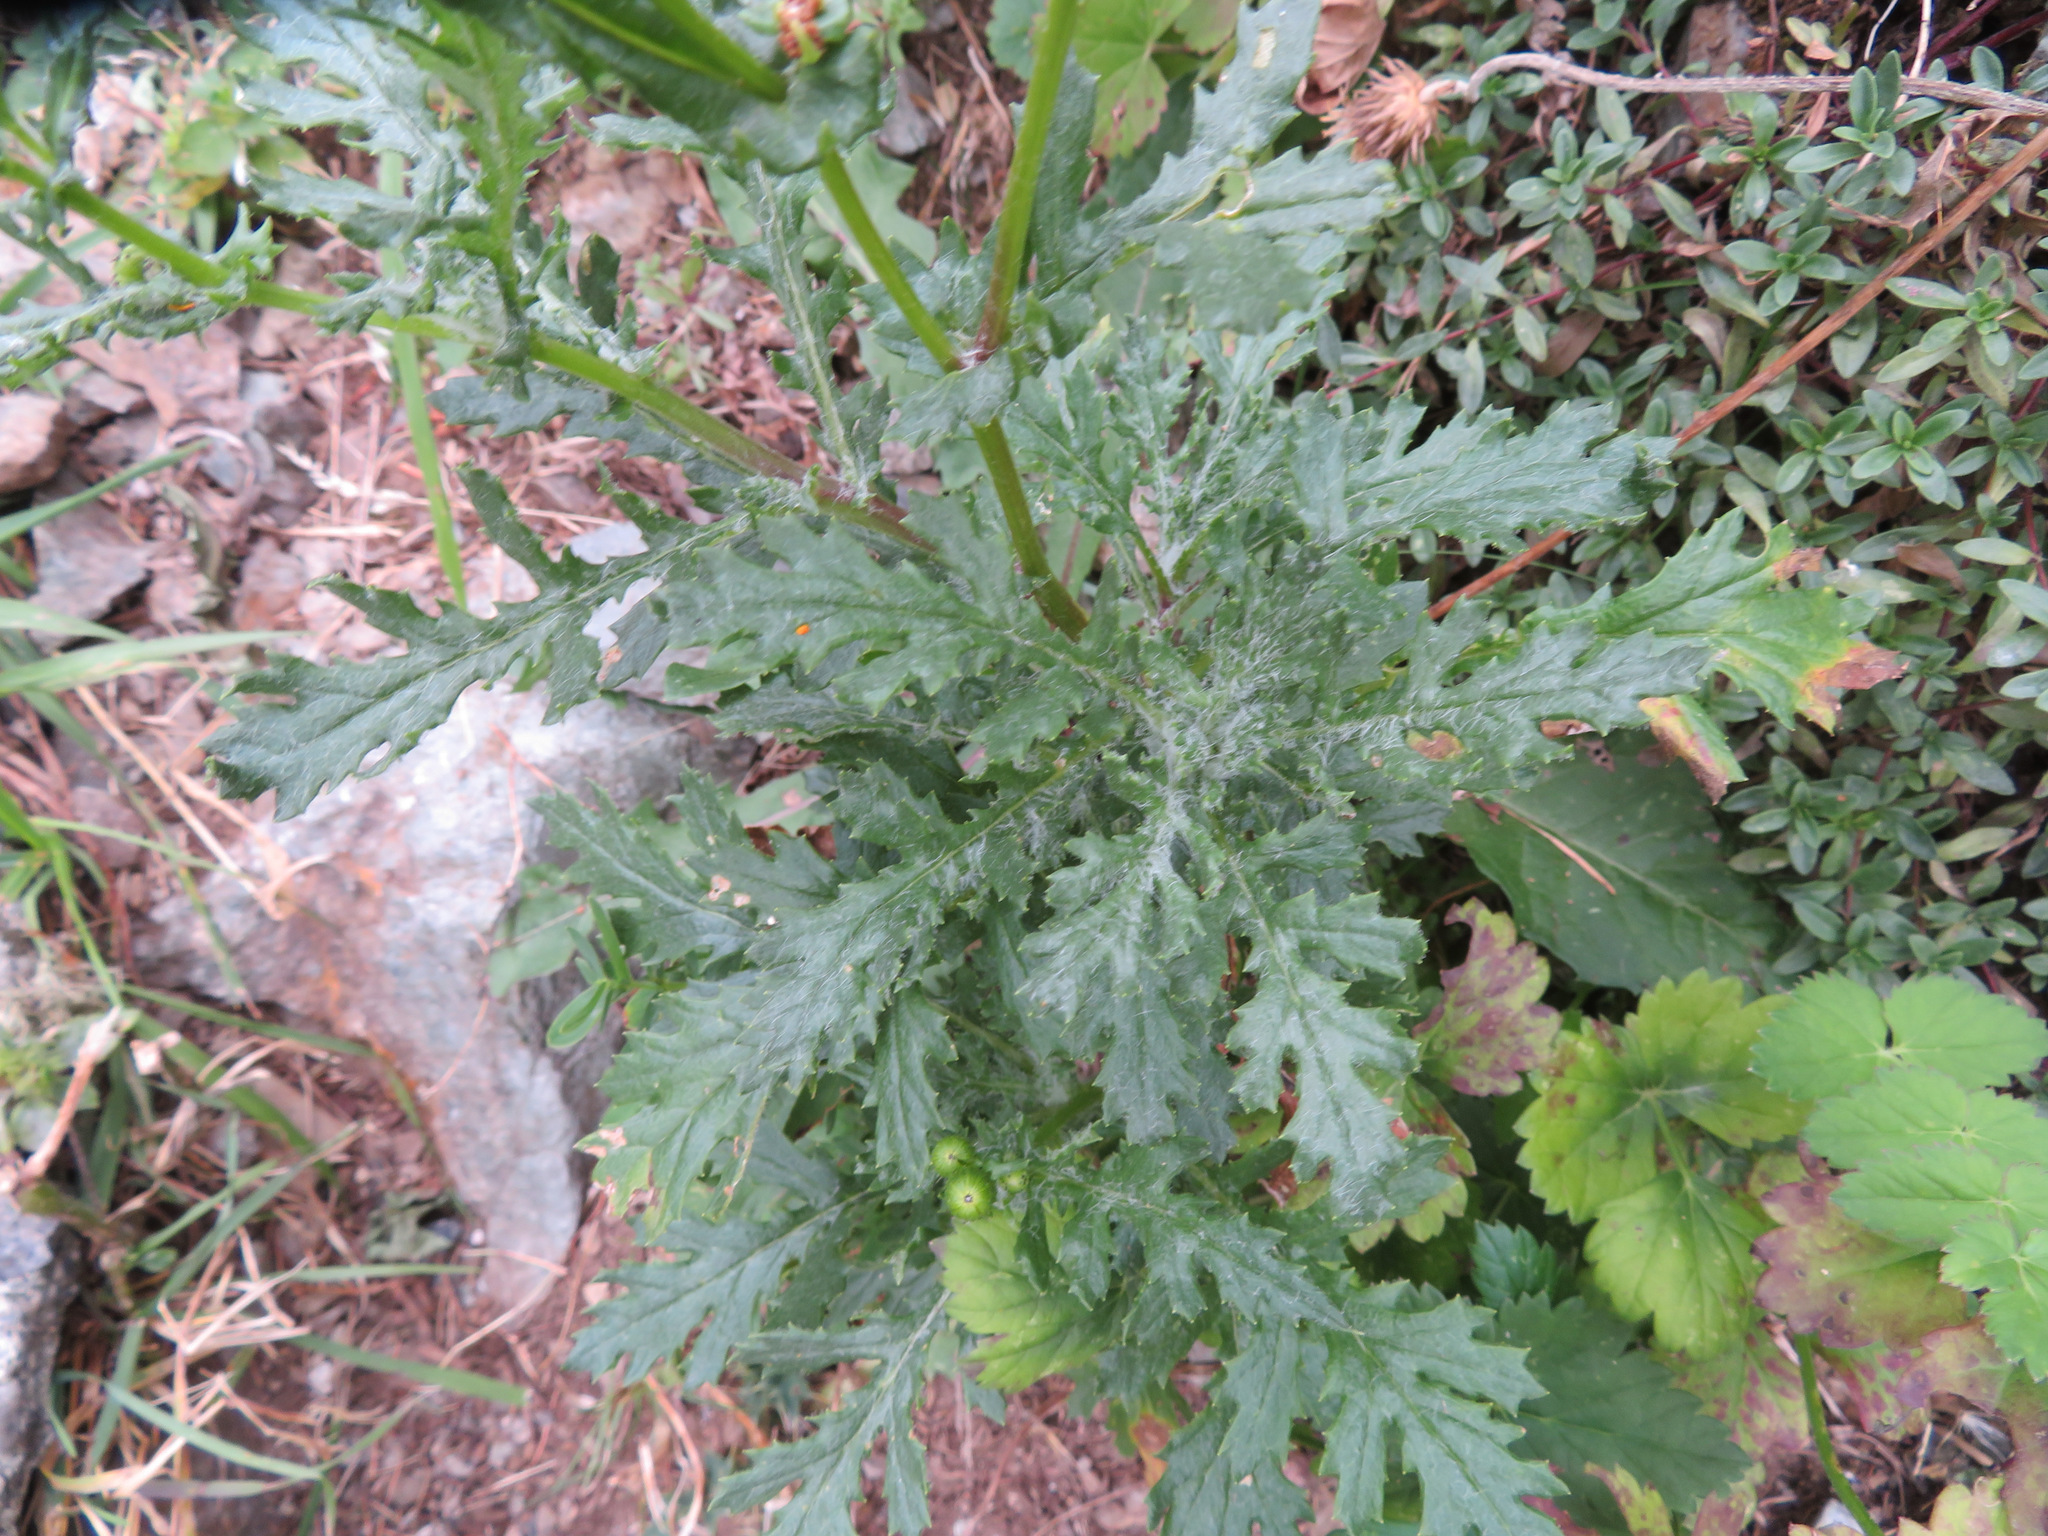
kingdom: Plantae
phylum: Tracheophyta
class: Magnoliopsida
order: Asterales
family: Asteraceae
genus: Senecio
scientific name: Senecio rupestris
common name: Rock ragwort
